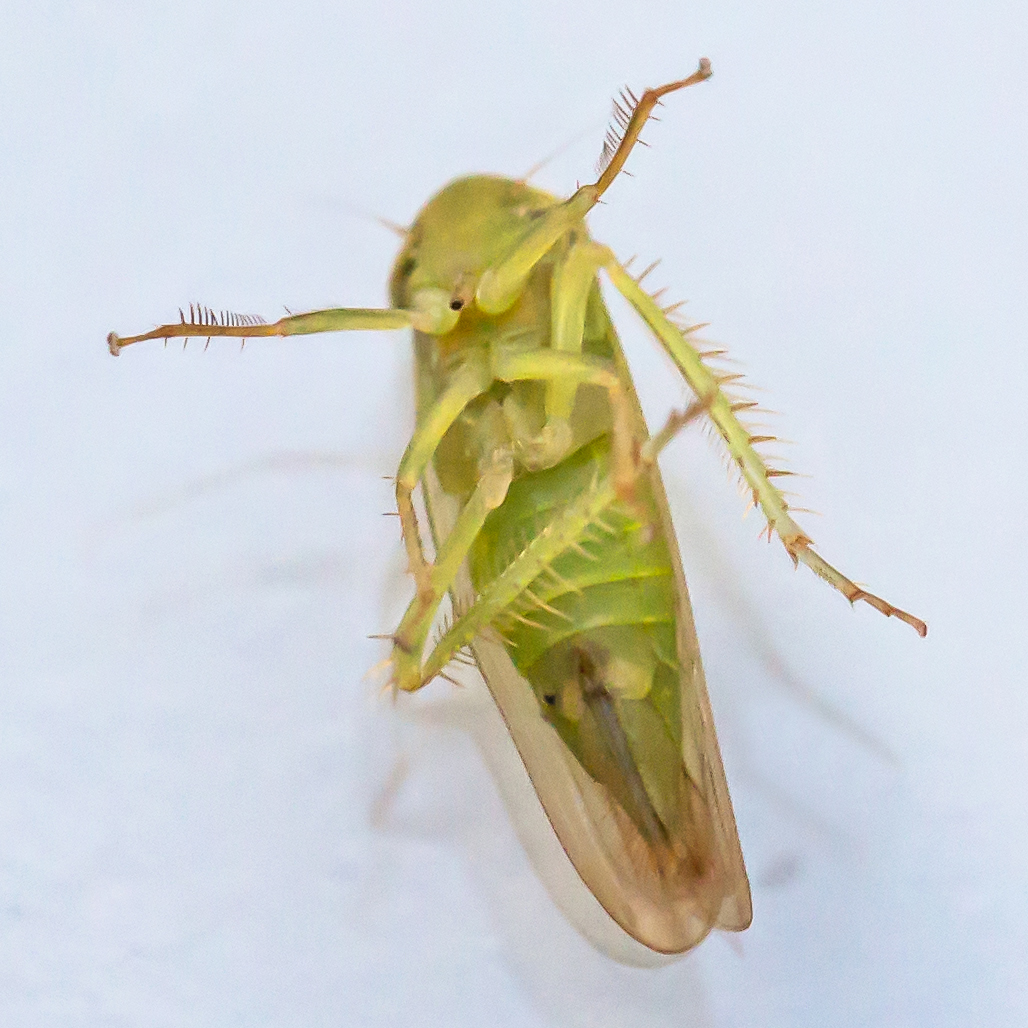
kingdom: Animalia
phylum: Arthropoda
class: Insecta
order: Hemiptera
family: Cicadellidae
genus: Chlorotettix
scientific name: Chlorotettix galbanatus
